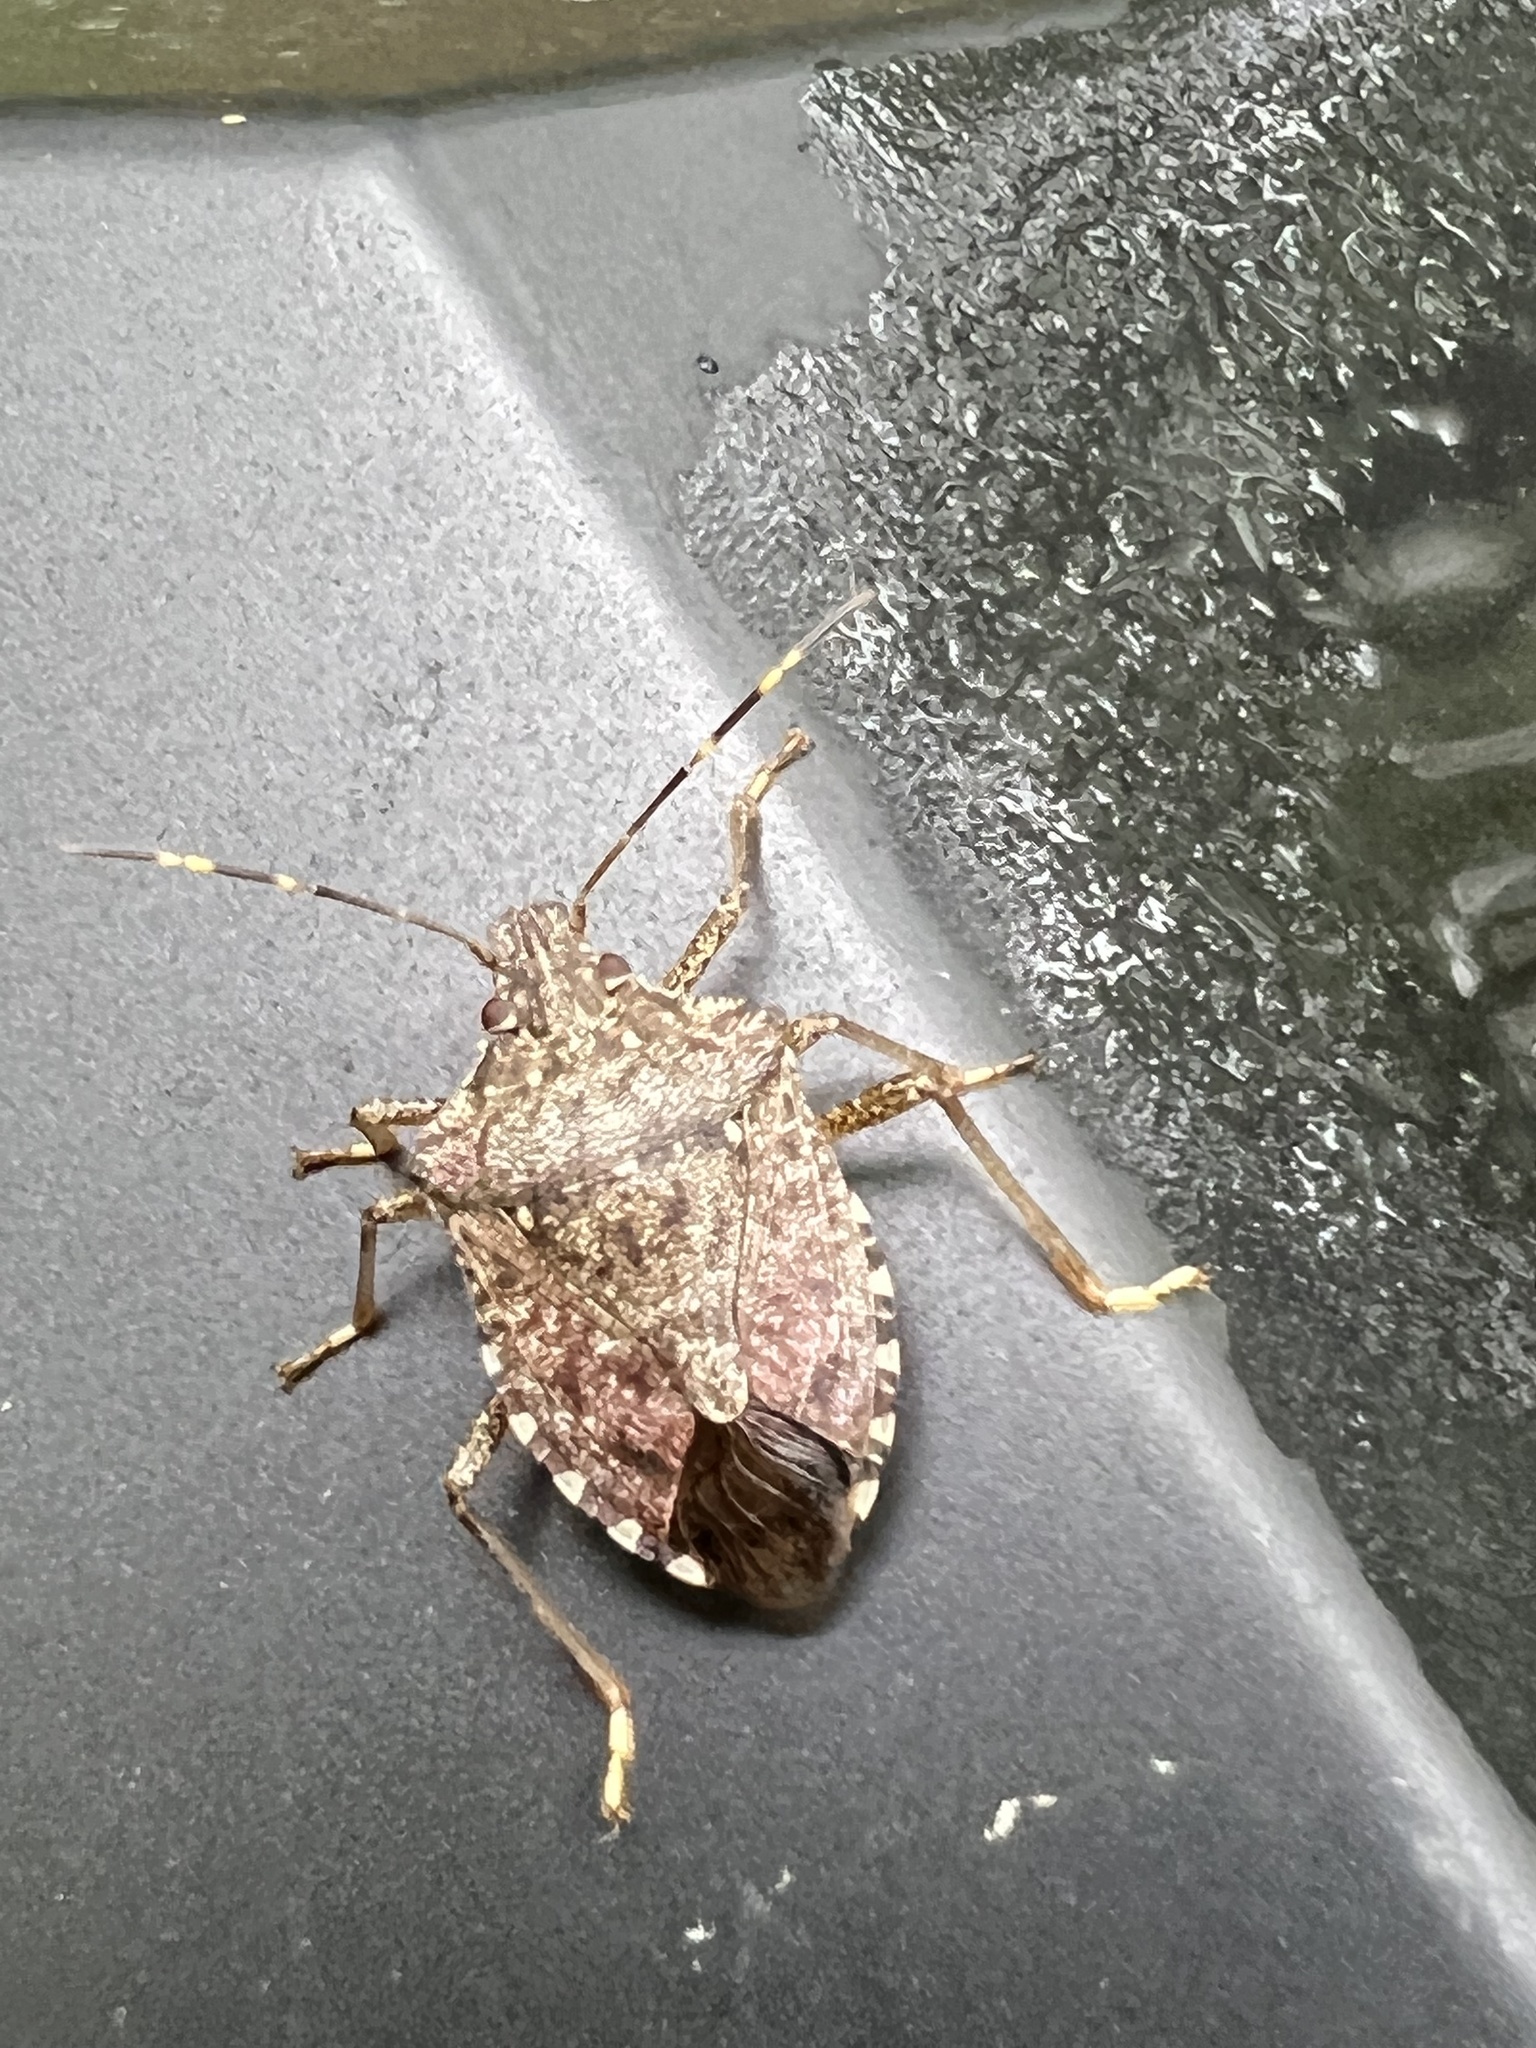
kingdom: Animalia
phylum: Arthropoda
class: Insecta
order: Hemiptera
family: Pentatomidae
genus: Halyomorpha
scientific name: Halyomorpha halys
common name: Brown marmorated stink bug
